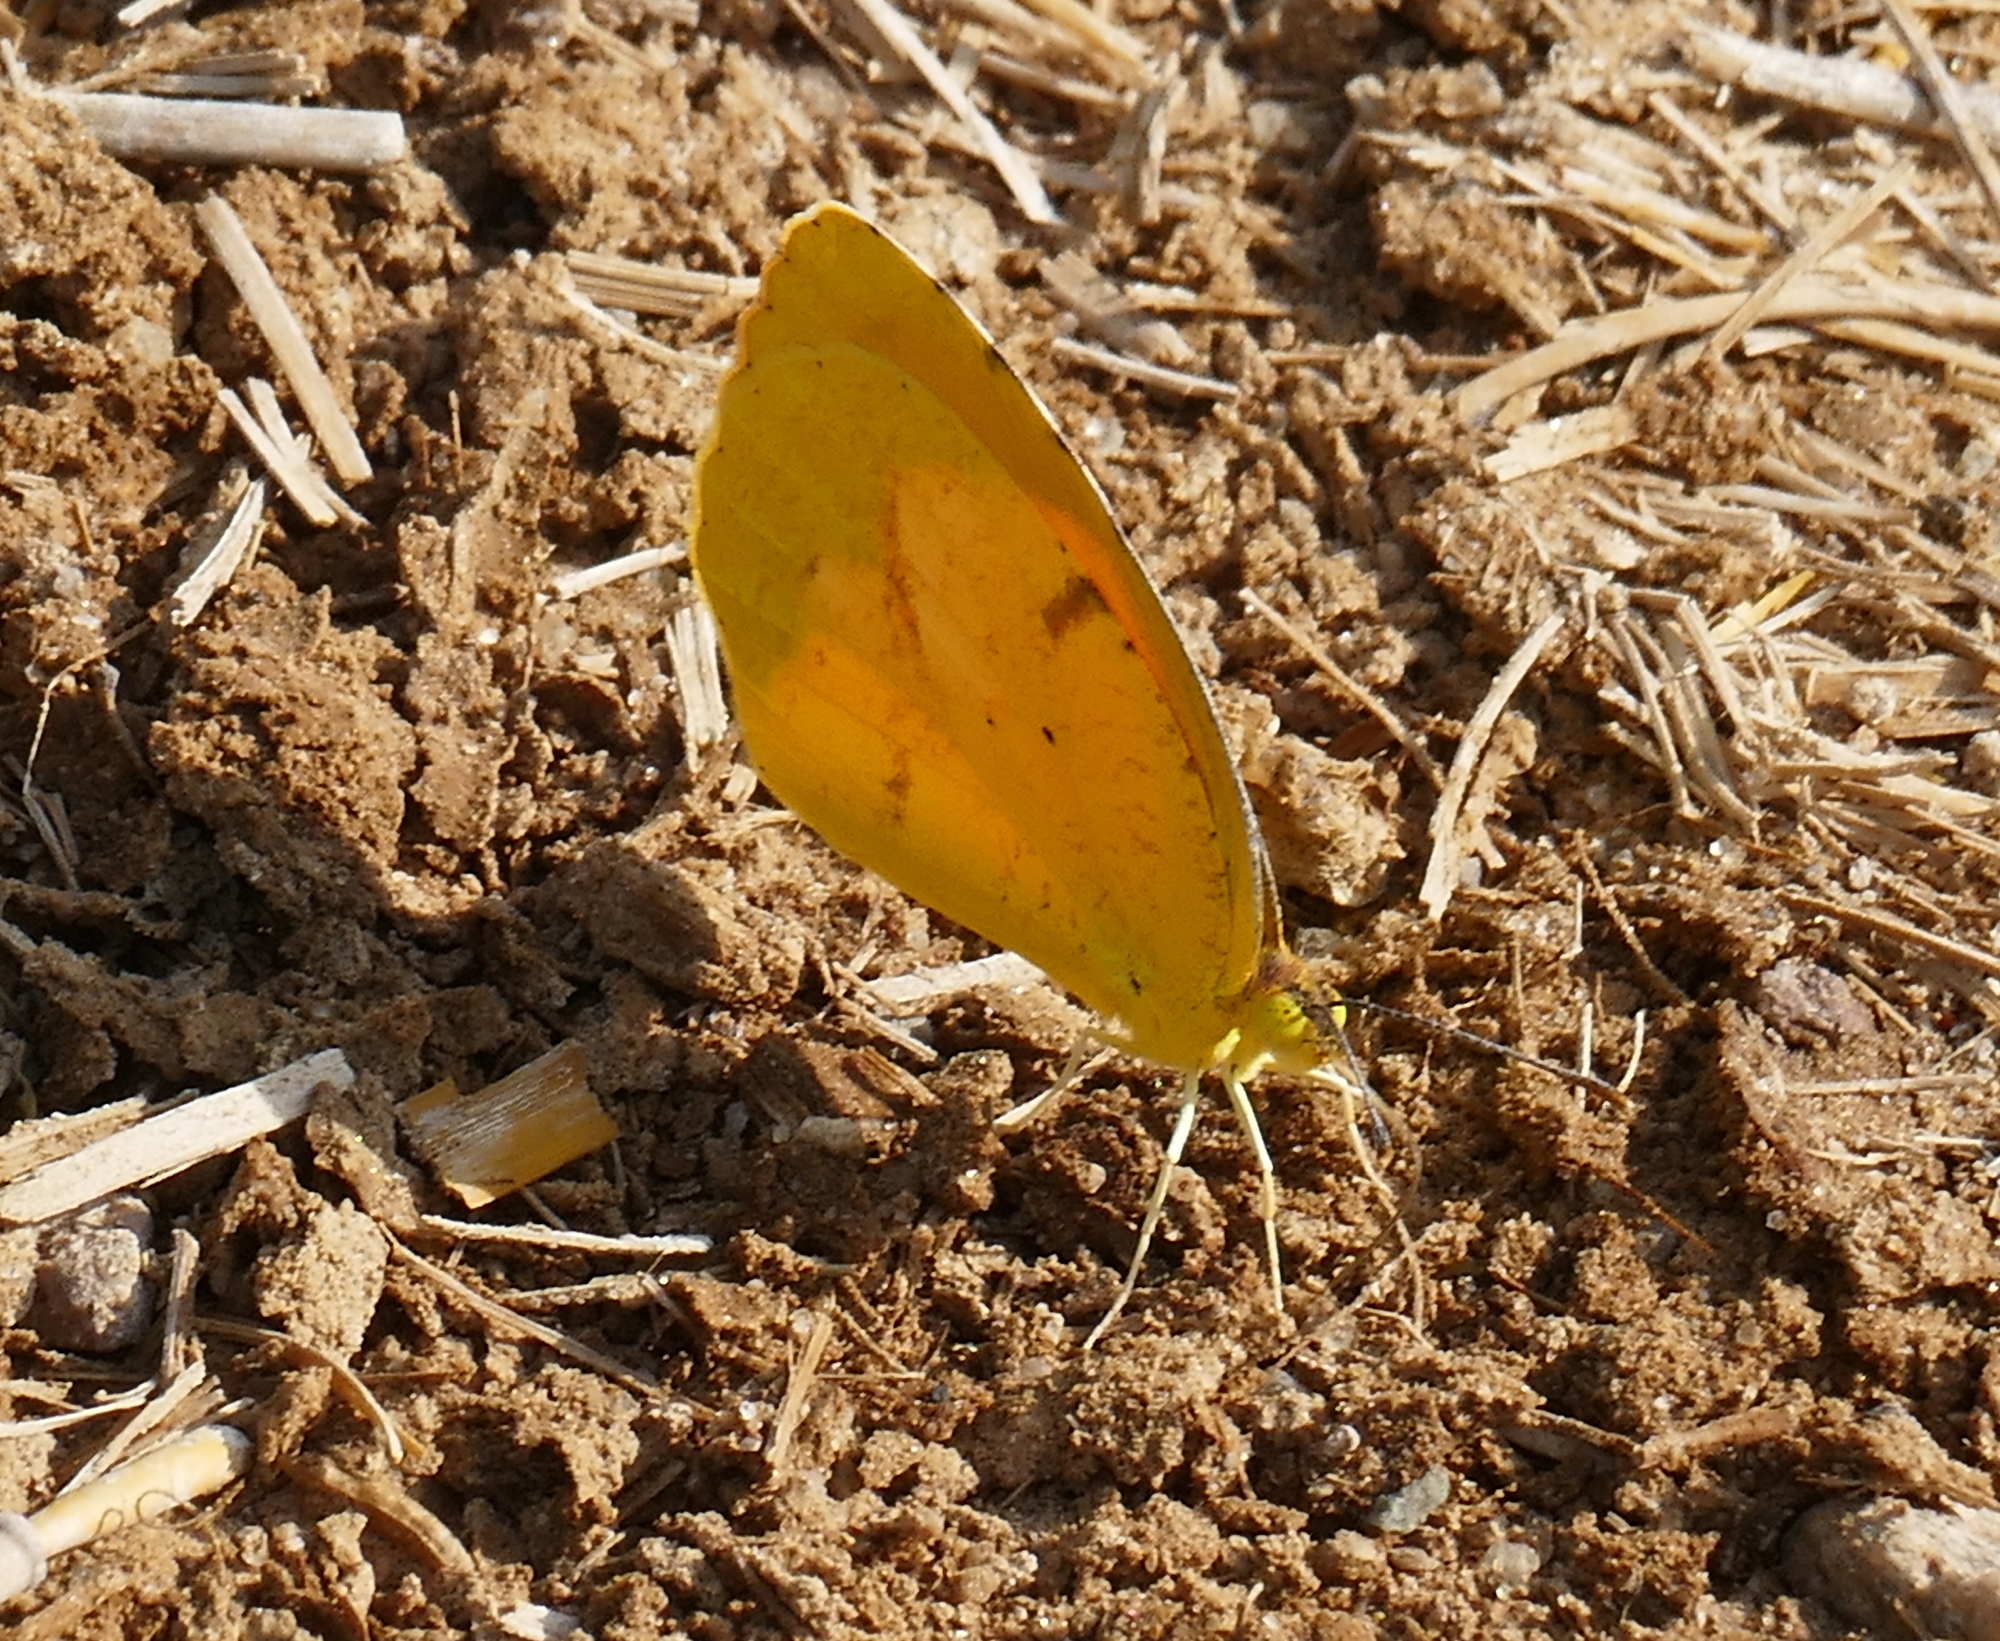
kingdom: Animalia
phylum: Arthropoda
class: Insecta
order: Lepidoptera
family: Pieridae
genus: Abaeis
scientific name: Abaeis nicippe
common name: Sleepy orange
